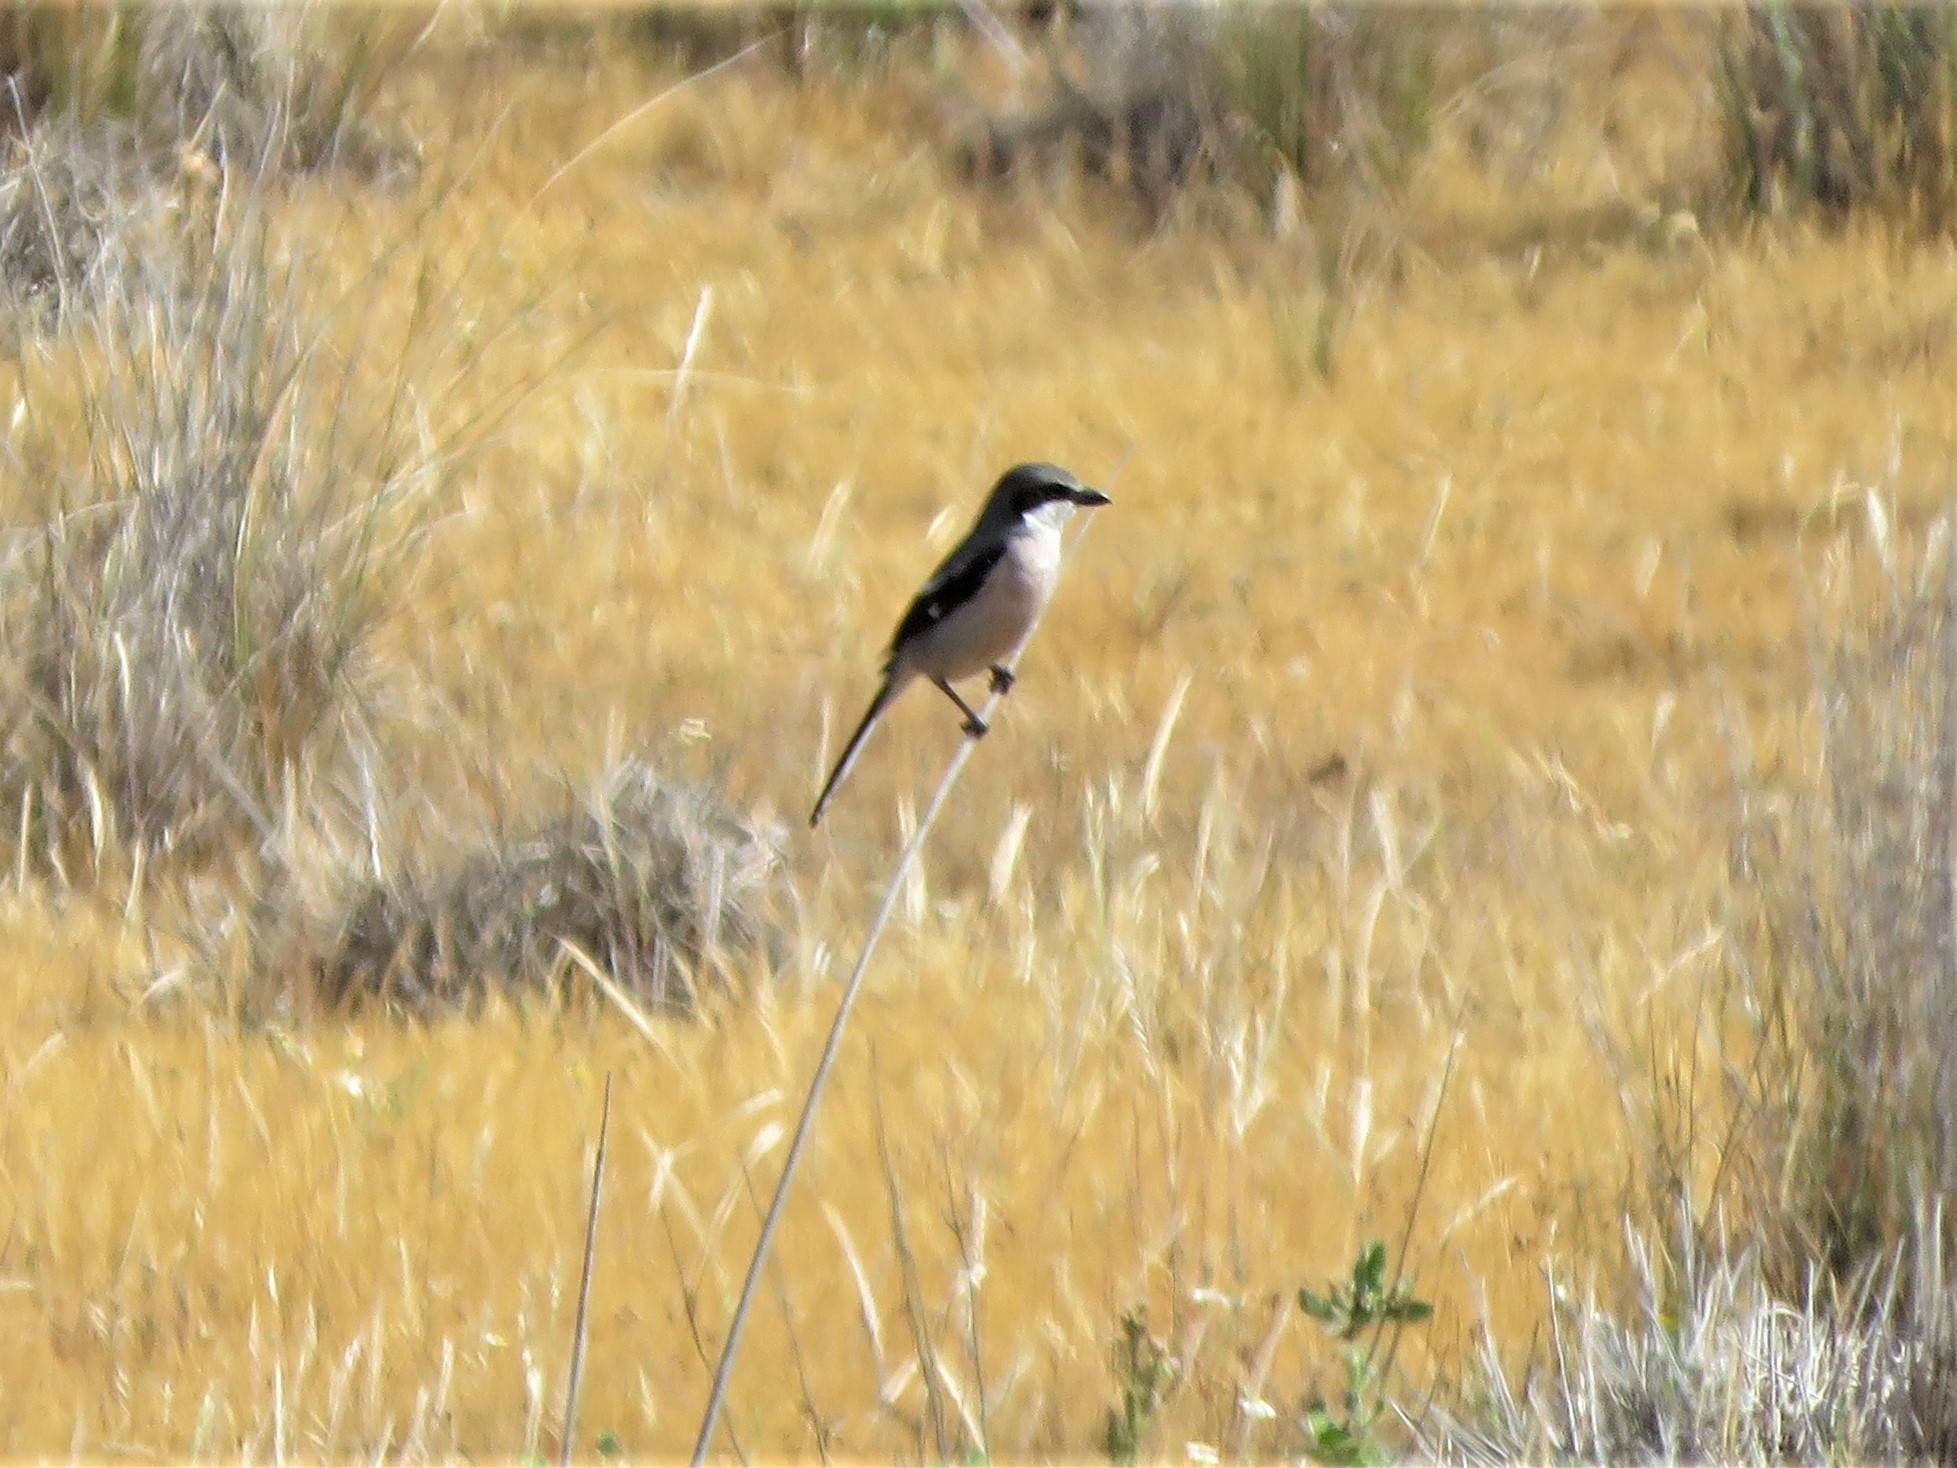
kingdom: Animalia
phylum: Chordata
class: Aves
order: Passeriformes
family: Laniidae
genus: Lanius
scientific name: Lanius meridionalis
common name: Iberian grey shrike
